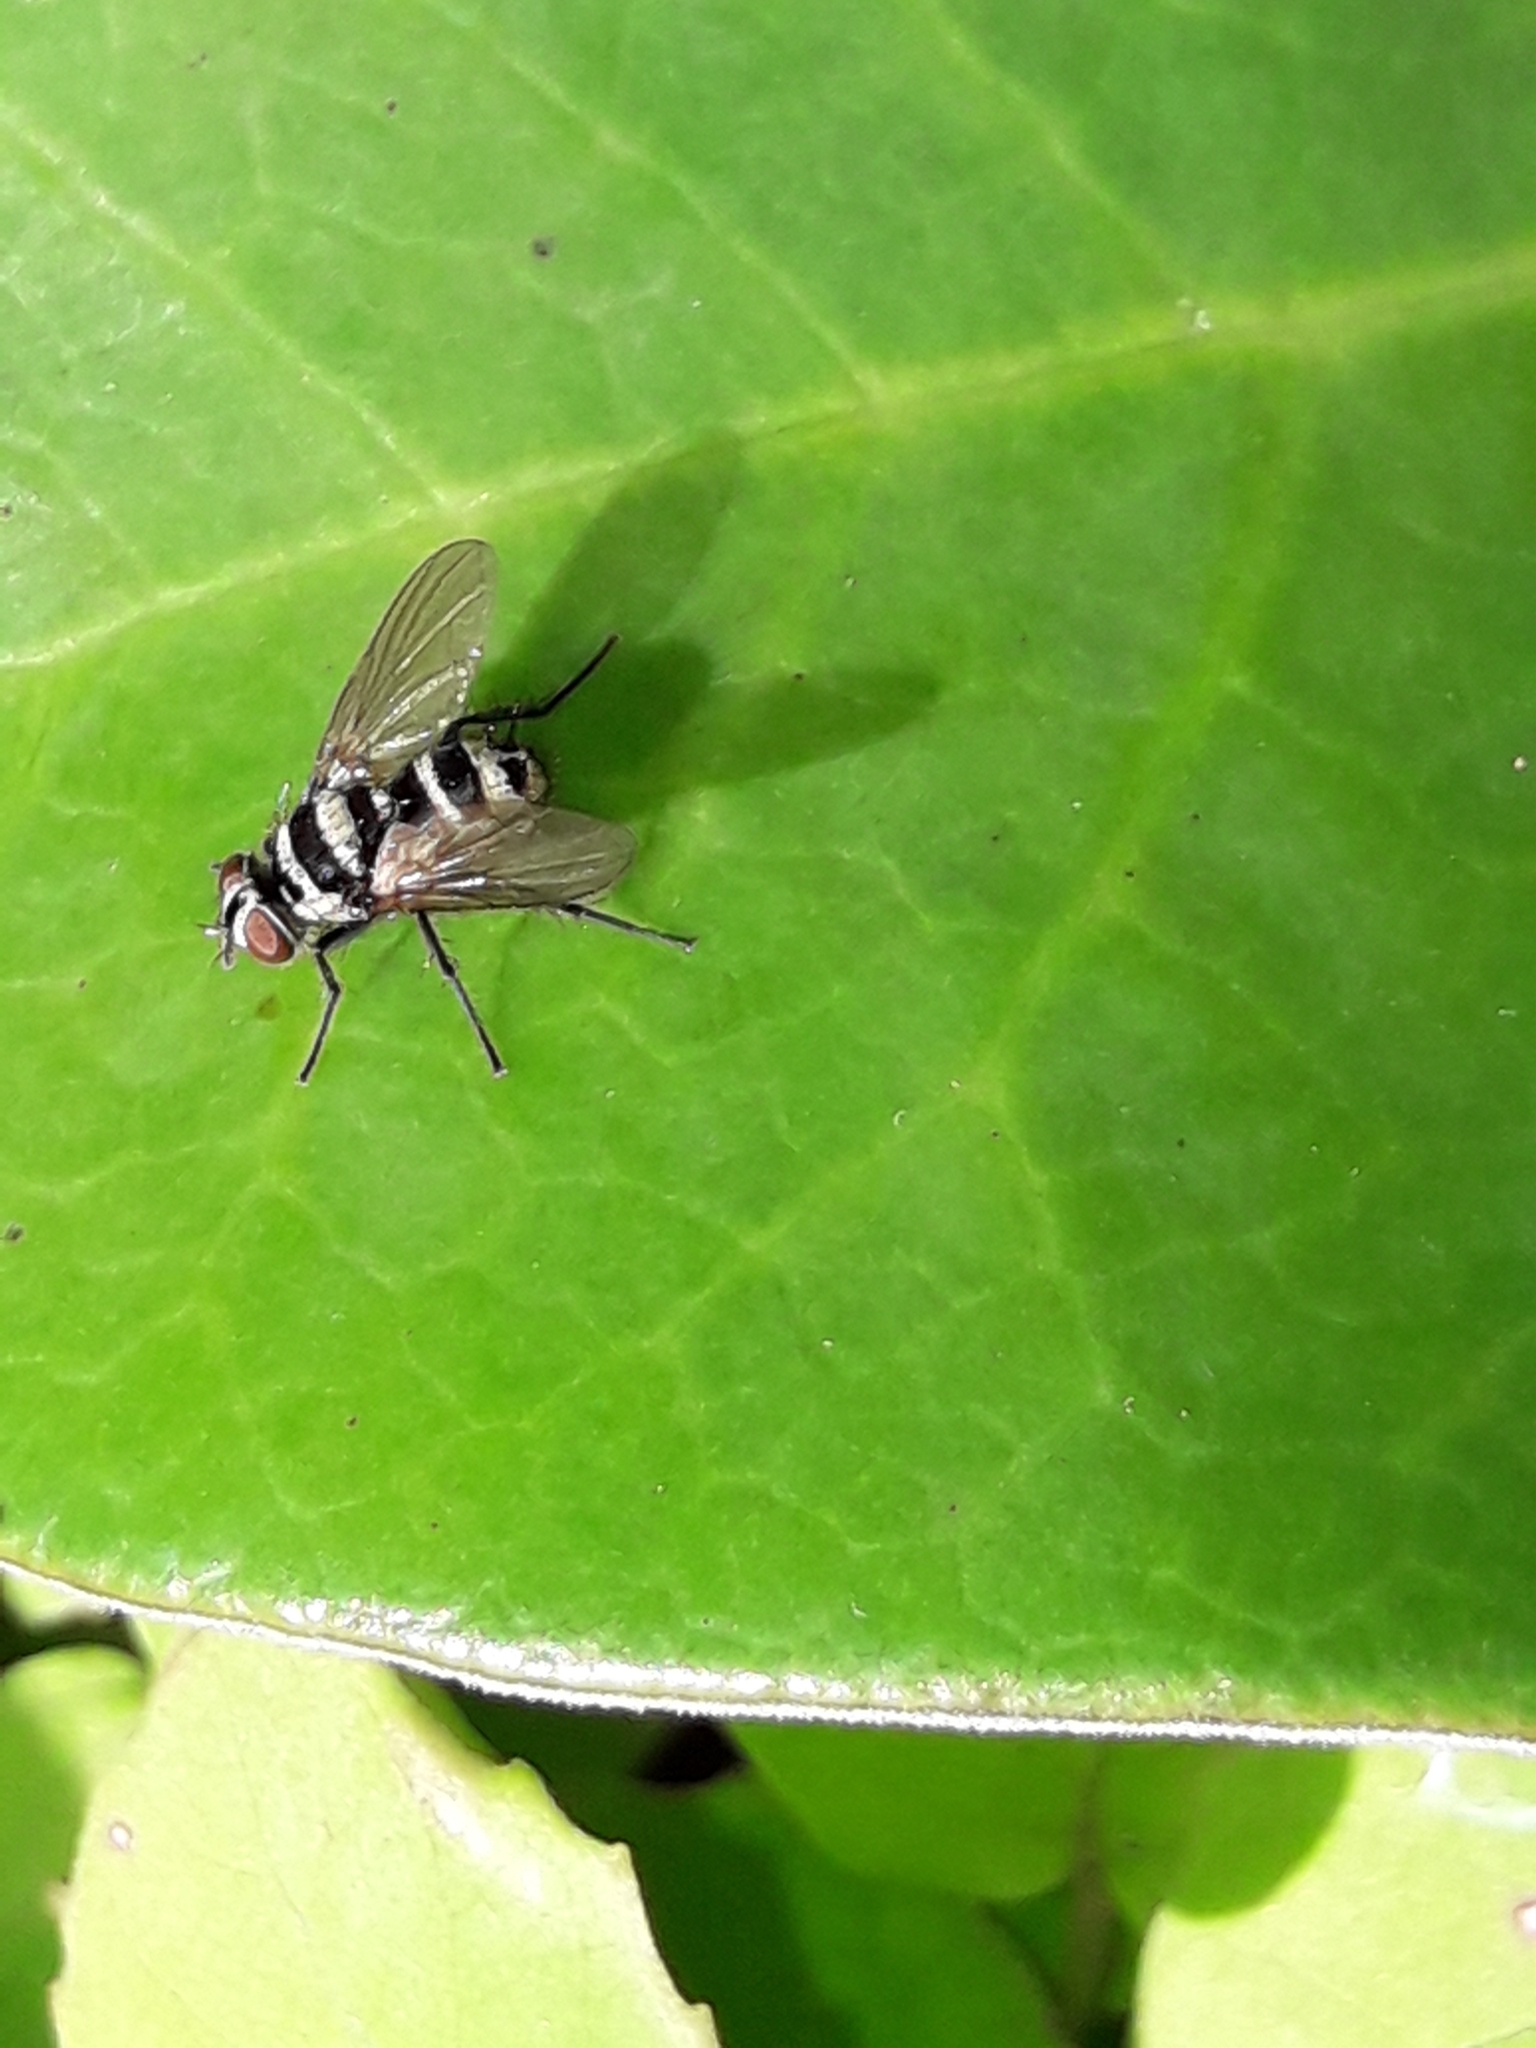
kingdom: Animalia
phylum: Arthropoda
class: Insecta
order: Diptera
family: Tachinidae
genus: Trigonospila
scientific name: Trigonospila brevifacies
